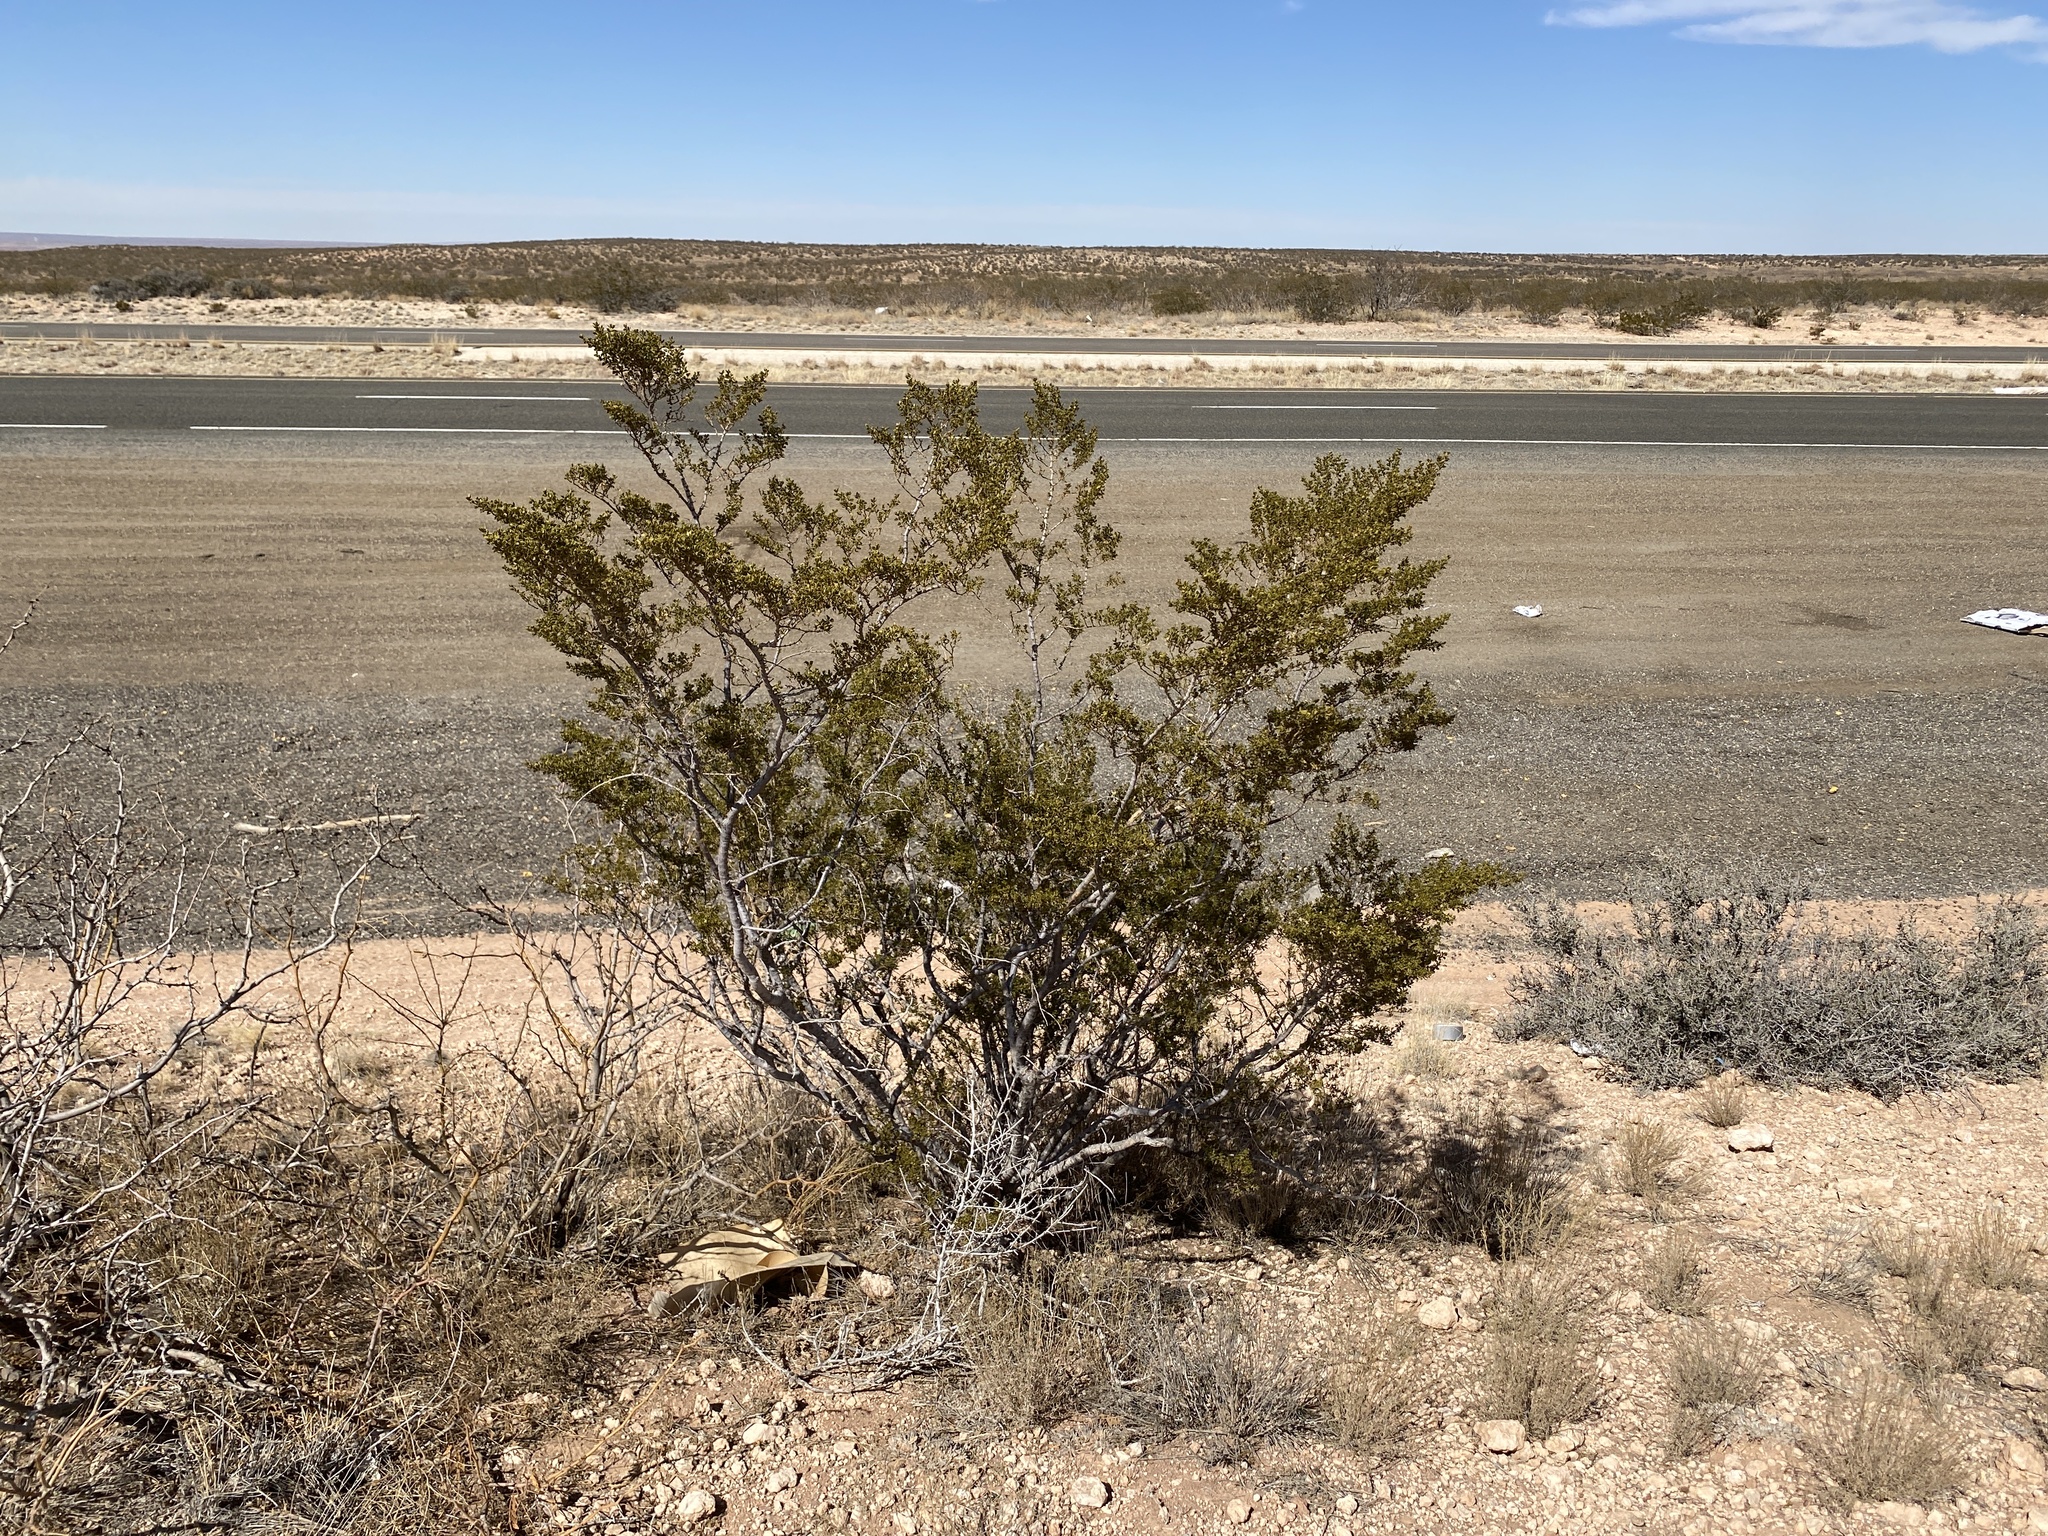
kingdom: Plantae
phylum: Tracheophyta
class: Magnoliopsida
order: Zygophyllales
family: Zygophyllaceae
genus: Larrea
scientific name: Larrea tridentata
